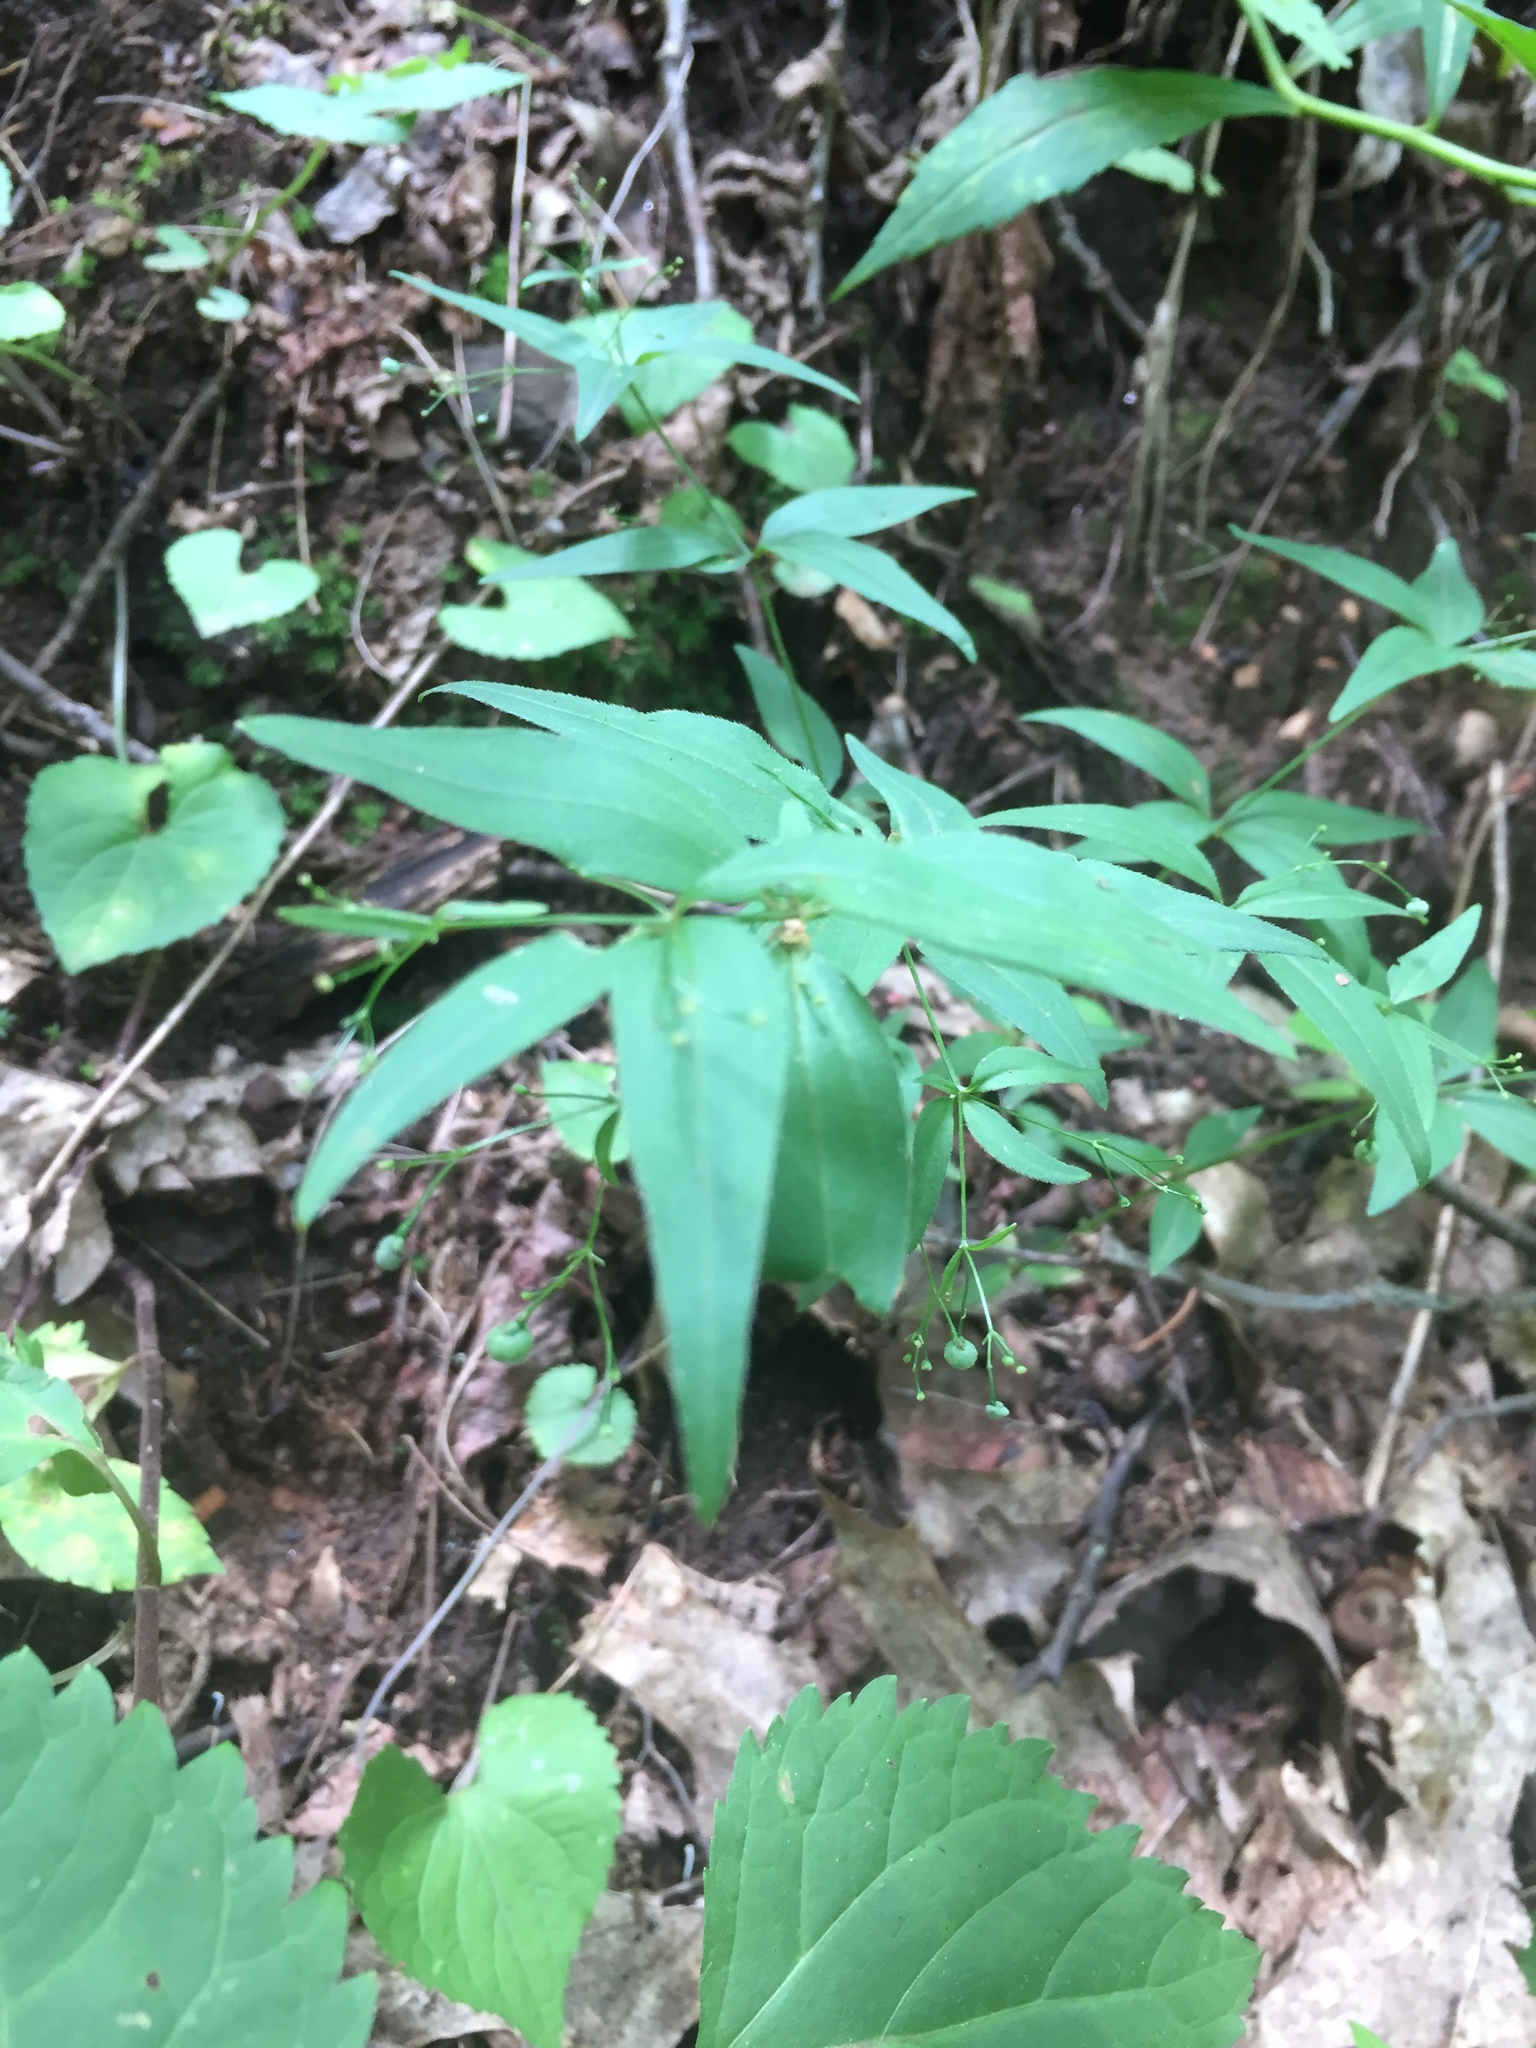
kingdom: Plantae
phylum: Tracheophyta
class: Magnoliopsida
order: Gentianales
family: Rubiaceae
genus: Galium
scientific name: Galium latifolium
